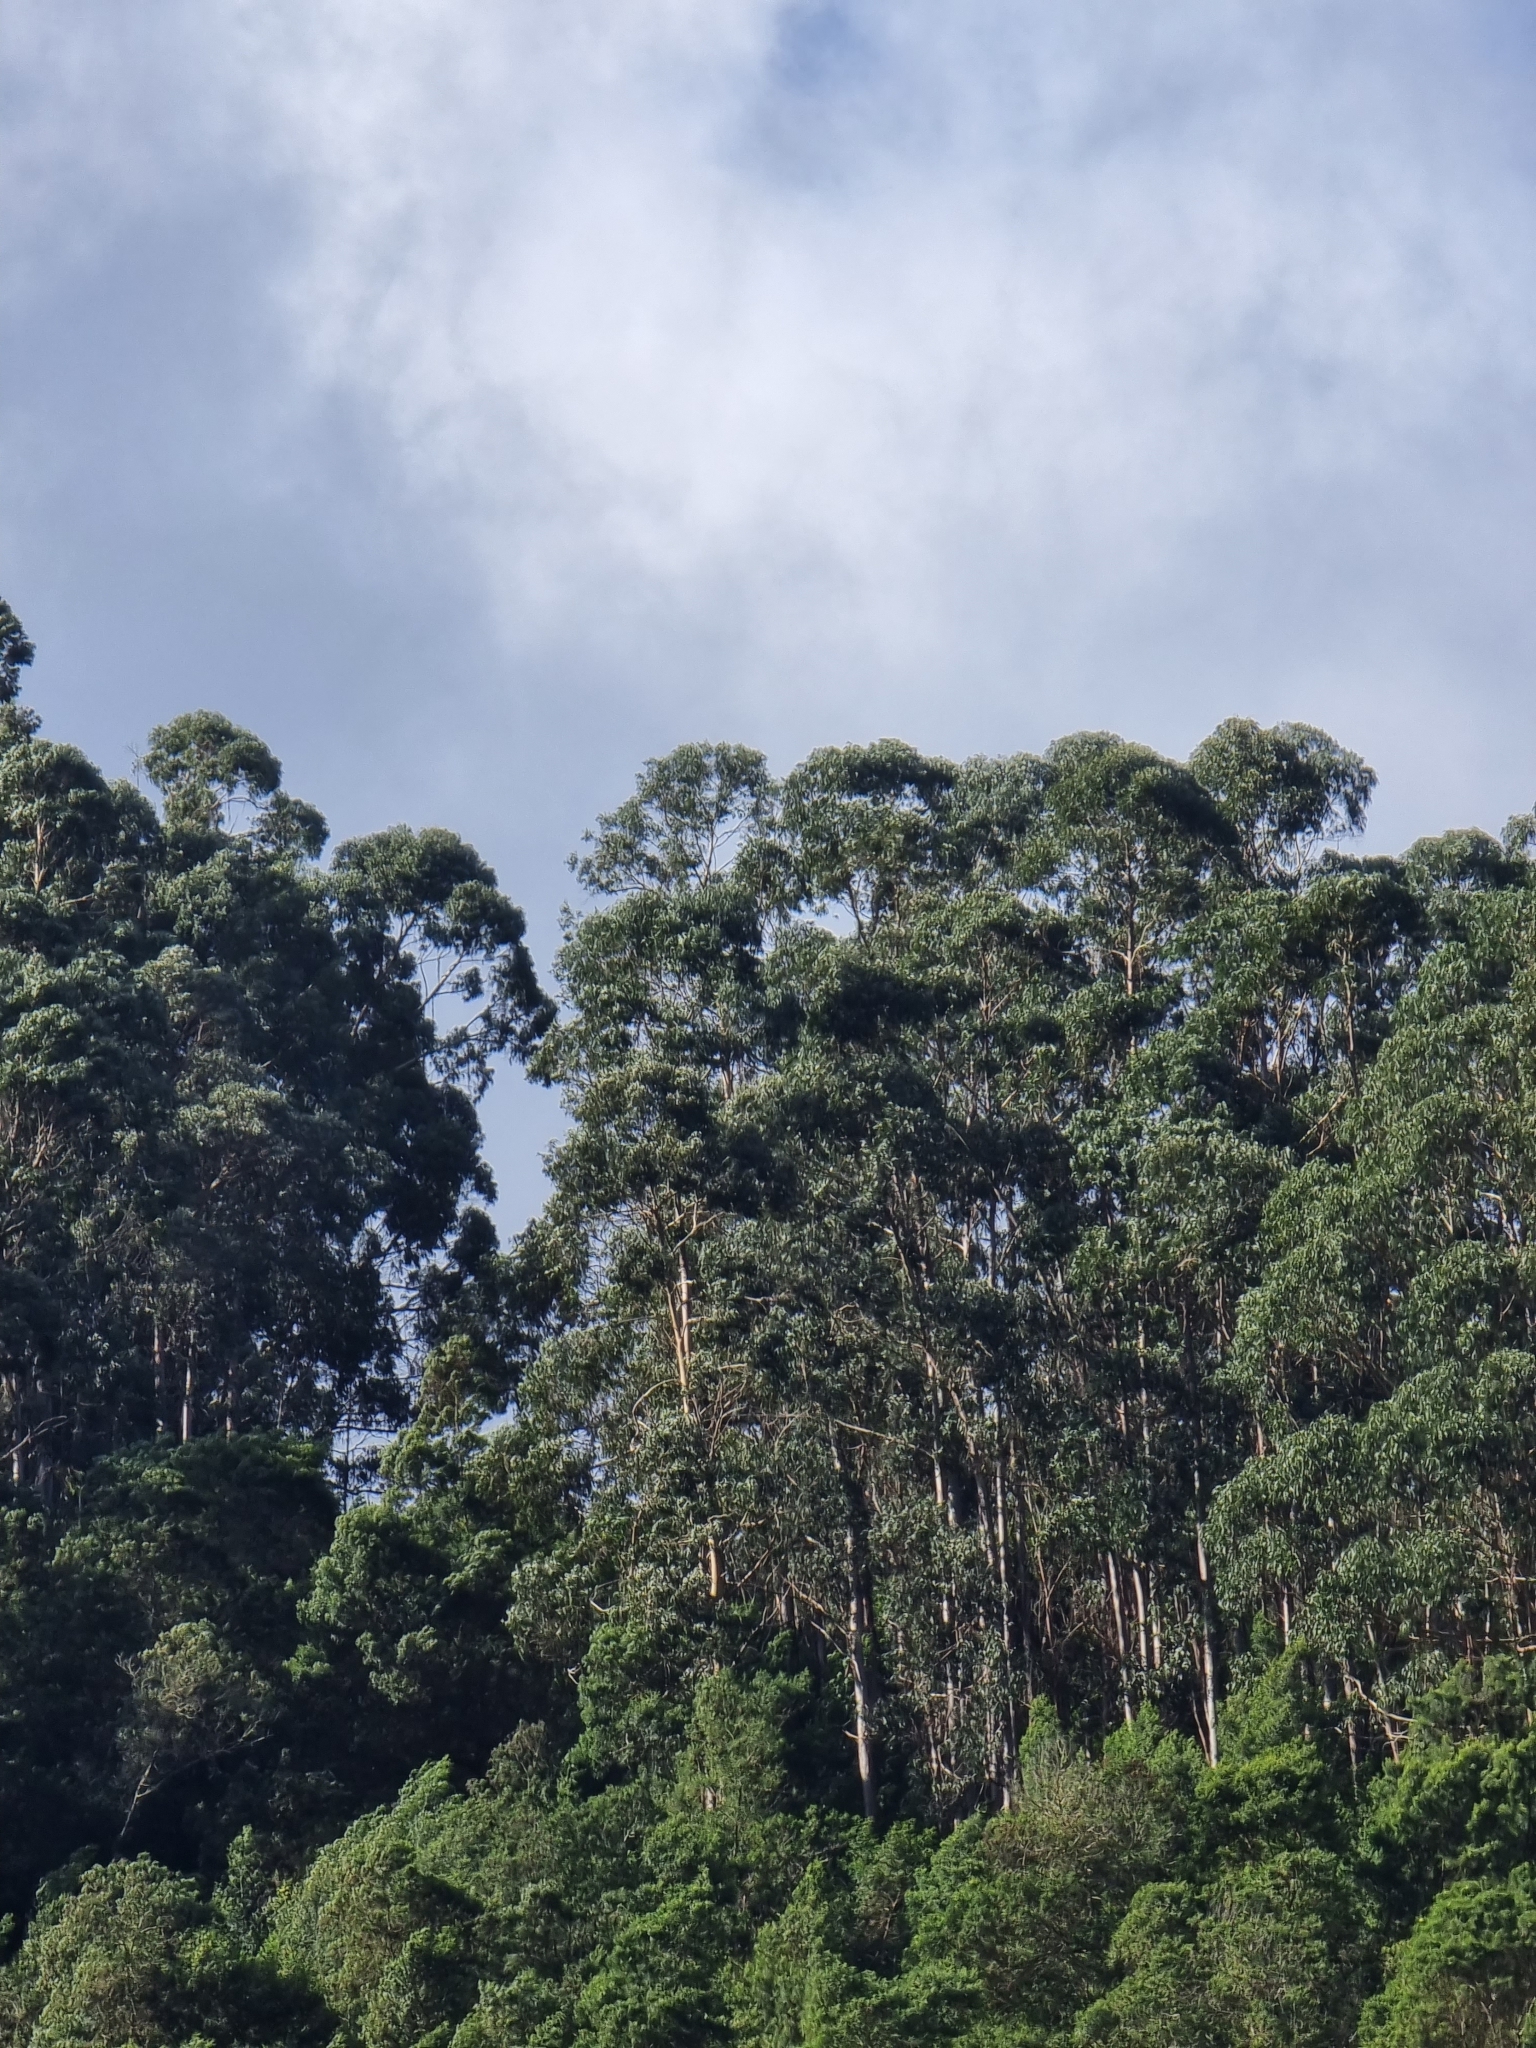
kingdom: Plantae
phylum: Tracheophyta
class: Magnoliopsida
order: Myrtales
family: Myrtaceae
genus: Eucalyptus
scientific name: Eucalyptus globulus
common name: Southern blue-gum
